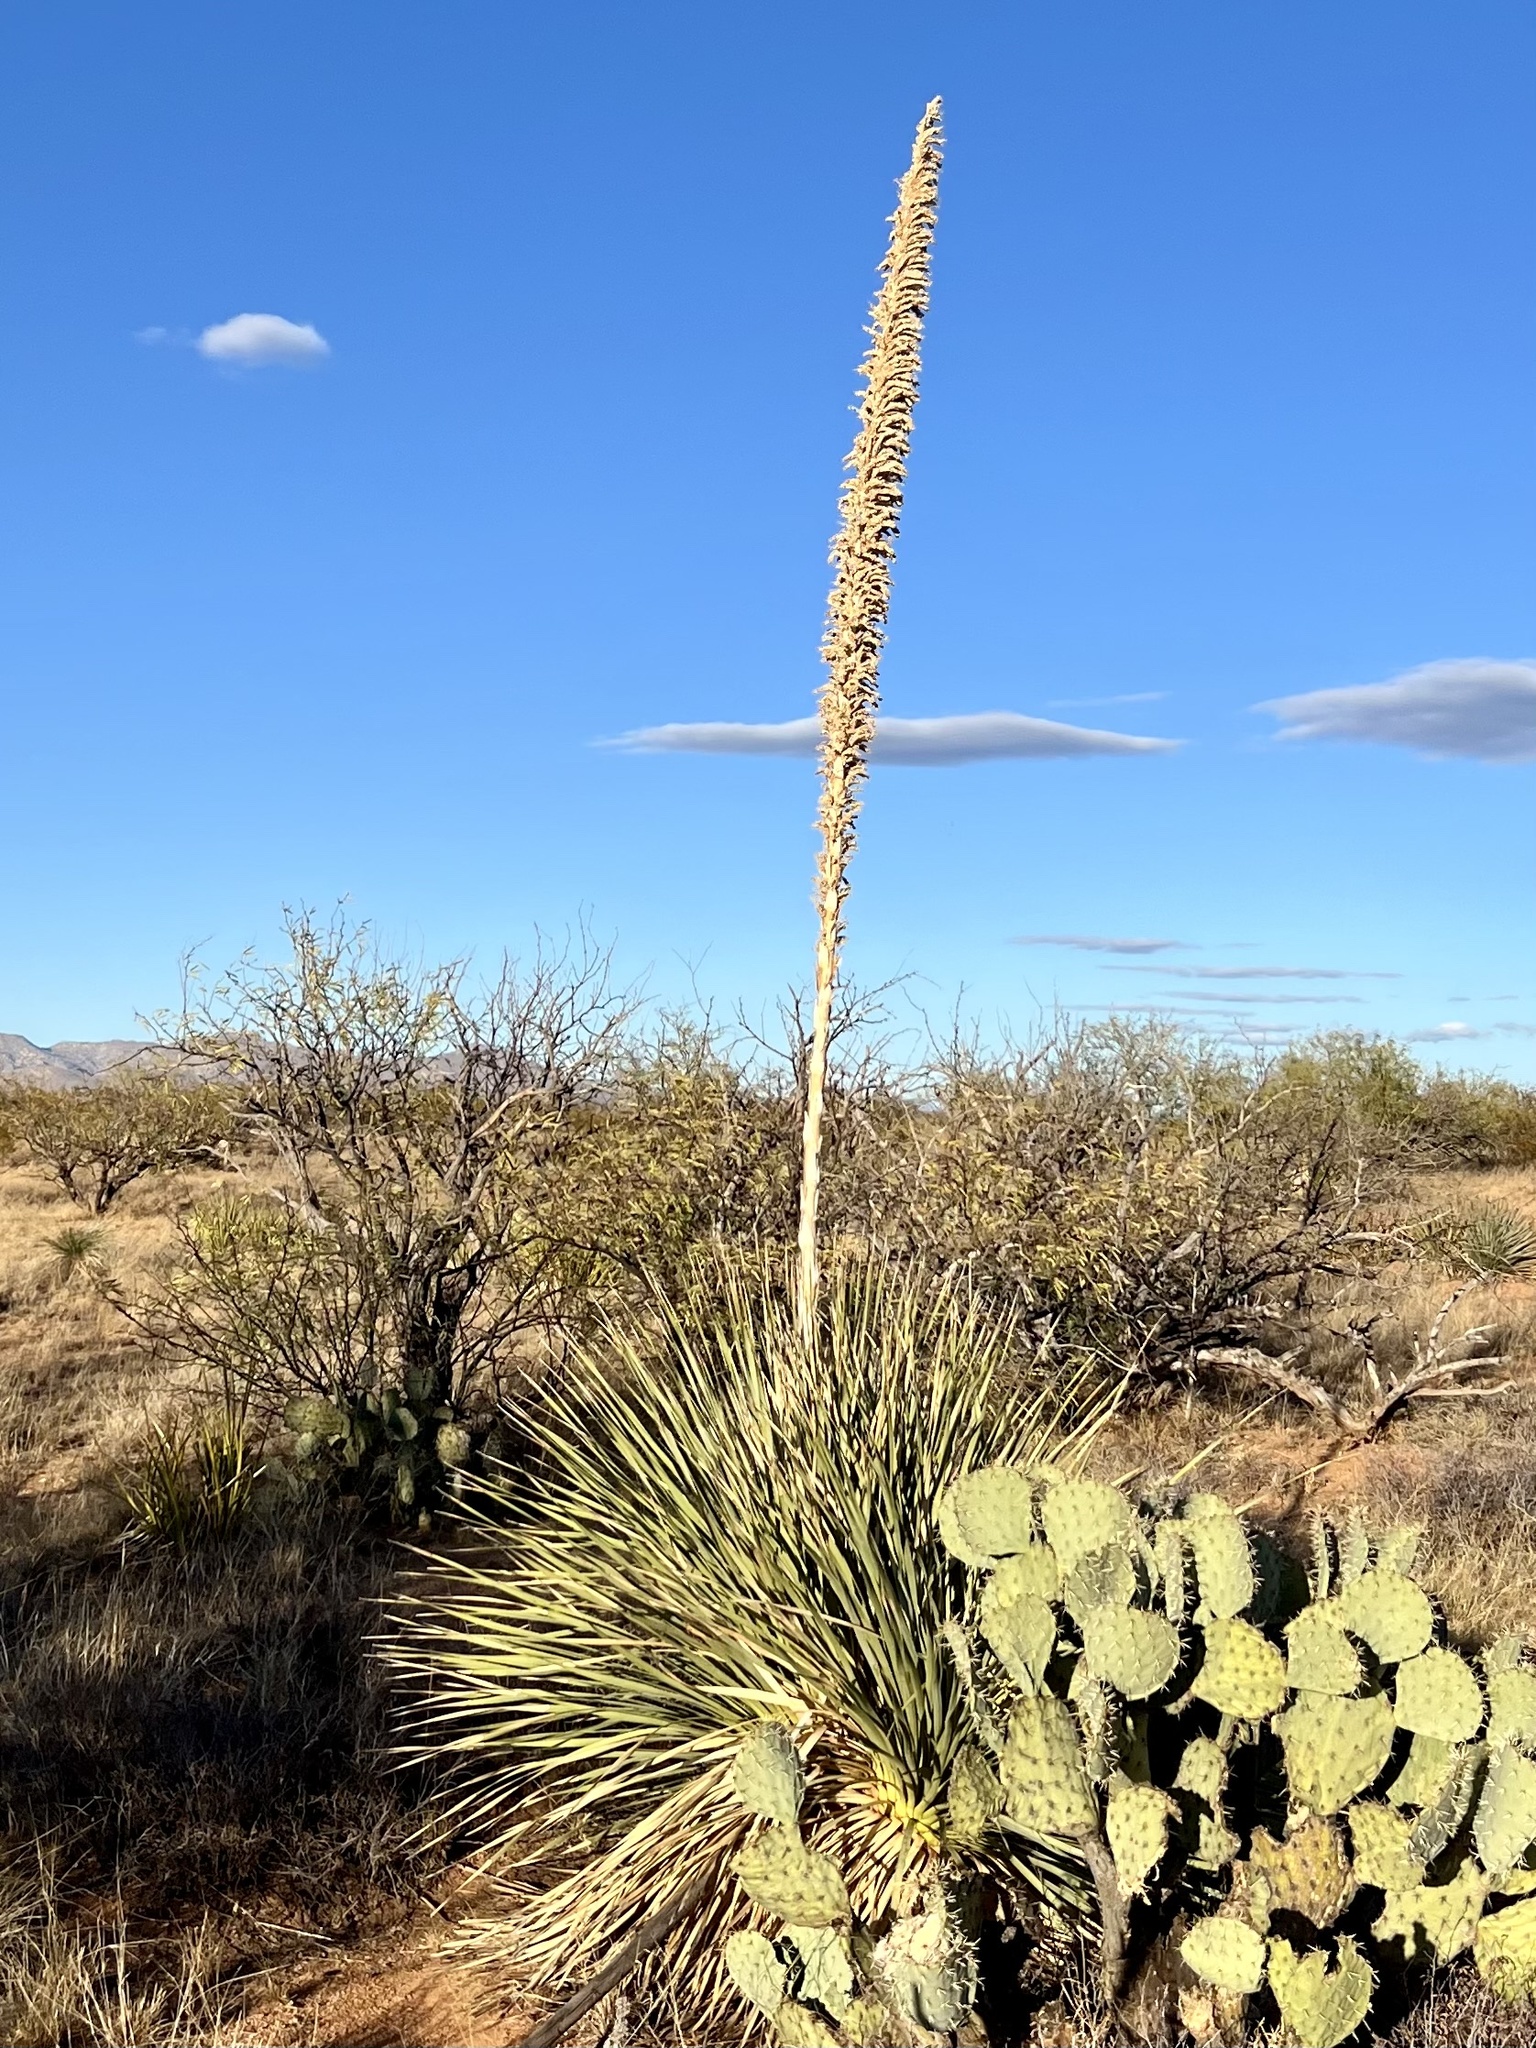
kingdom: Plantae
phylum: Tracheophyta
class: Liliopsida
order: Asparagales
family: Asparagaceae
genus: Dasylirion
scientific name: Dasylirion wheeleri
